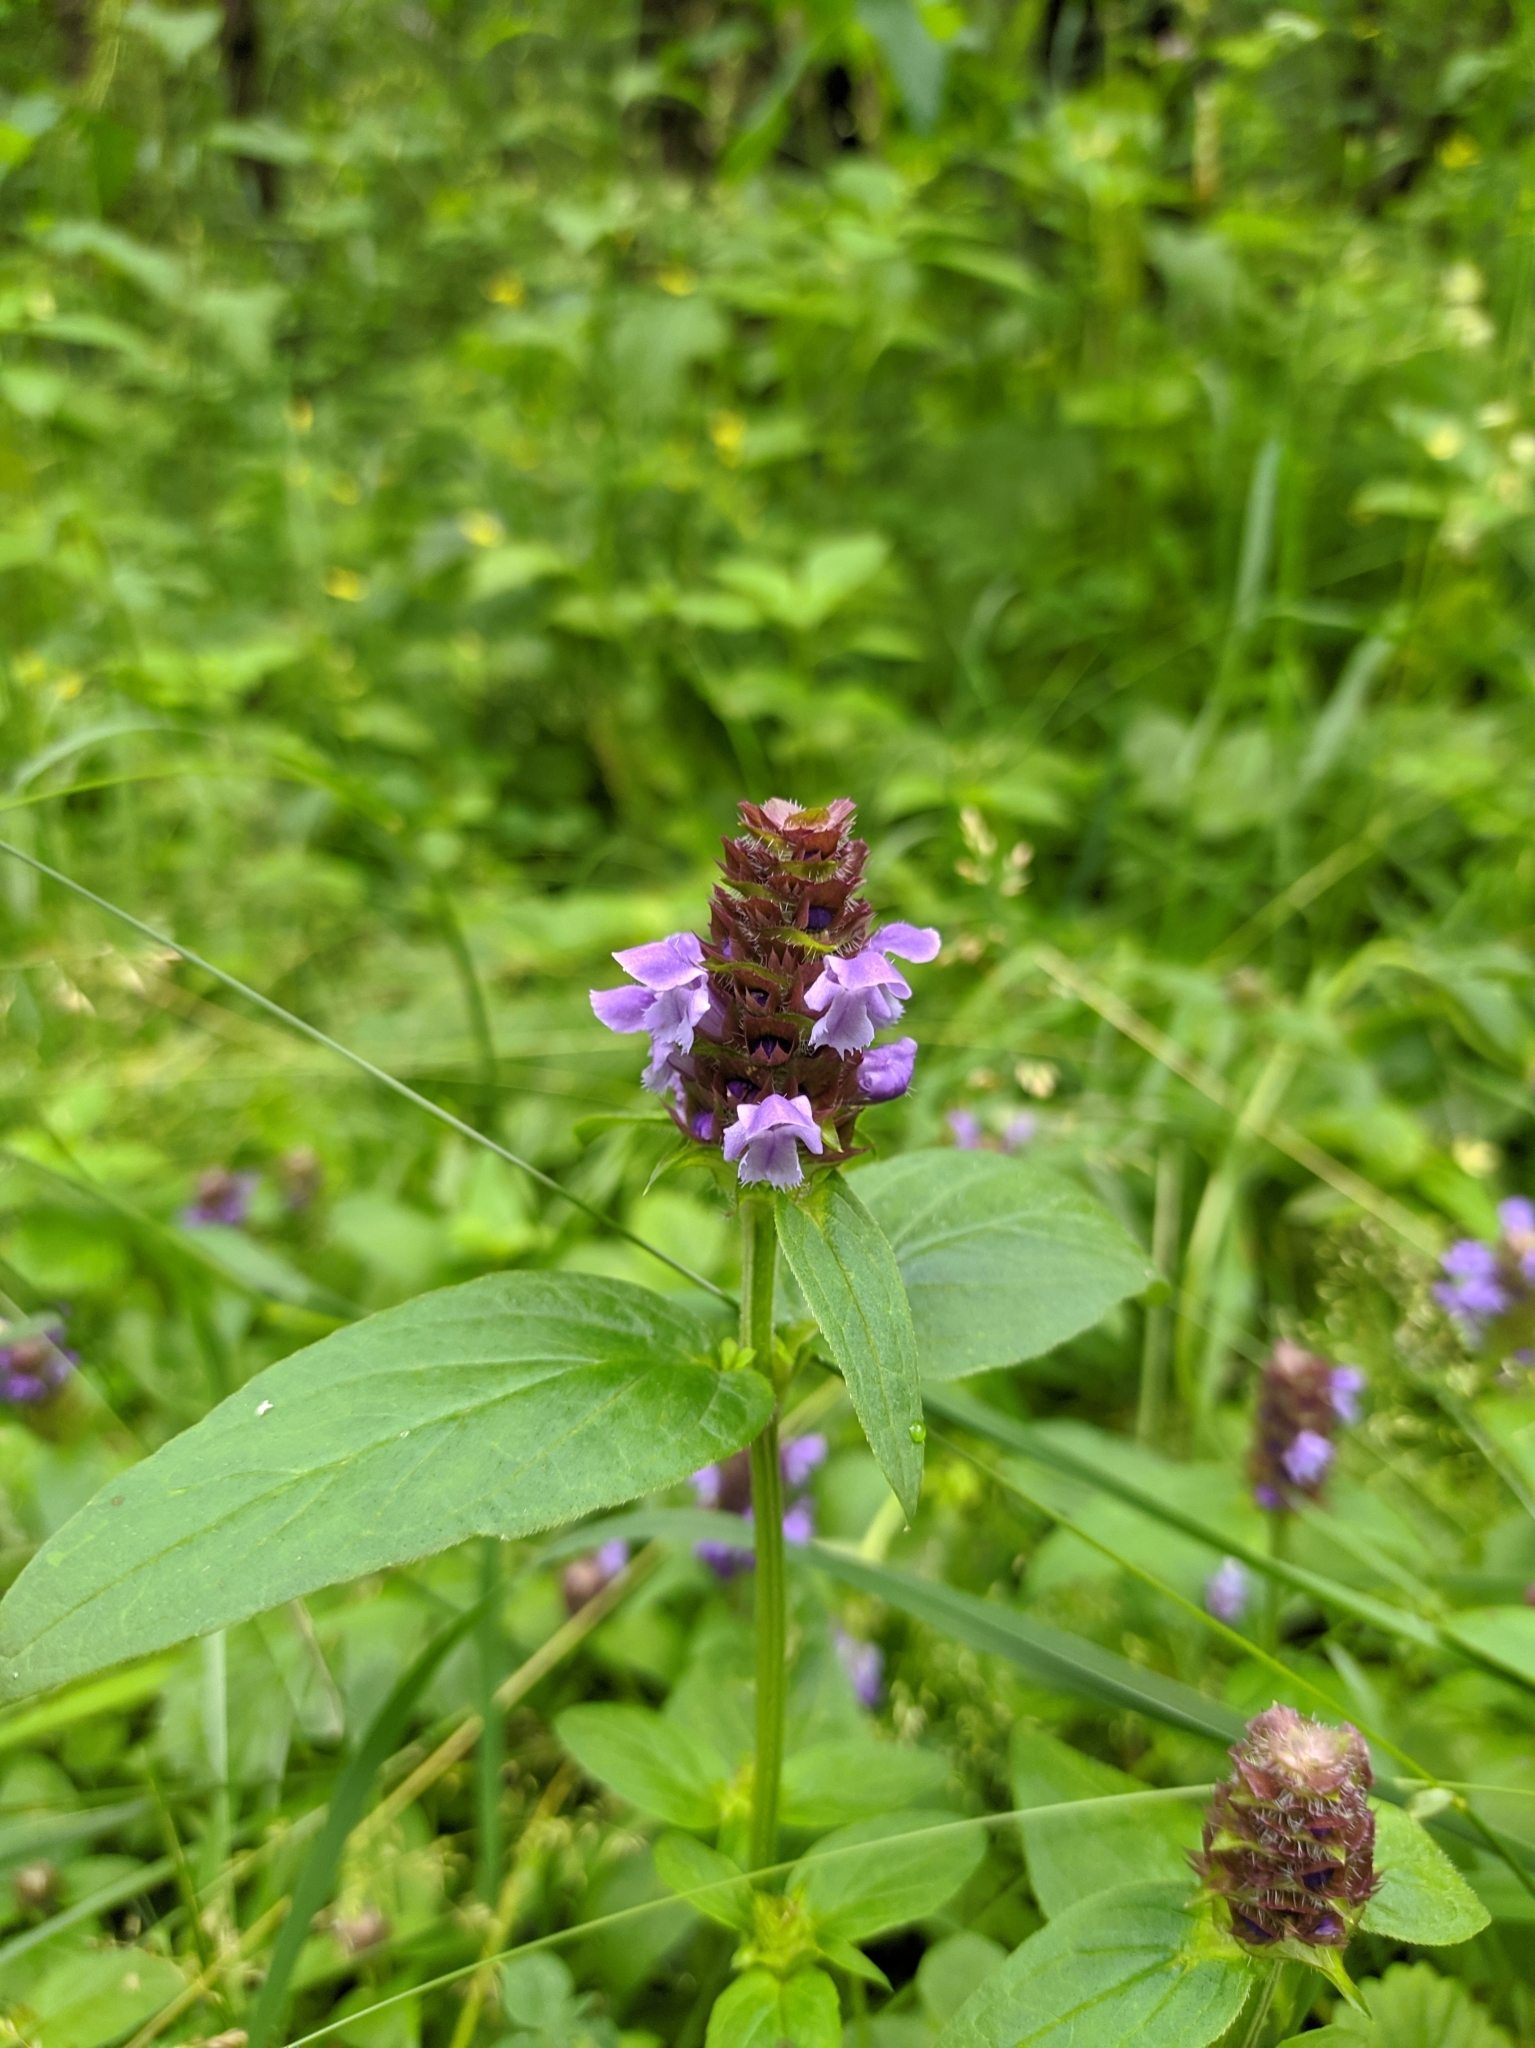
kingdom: Plantae
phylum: Tracheophyta
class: Magnoliopsida
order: Lamiales
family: Lamiaceae
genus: Prunella
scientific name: Prunella vulgaris
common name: Heal-all
